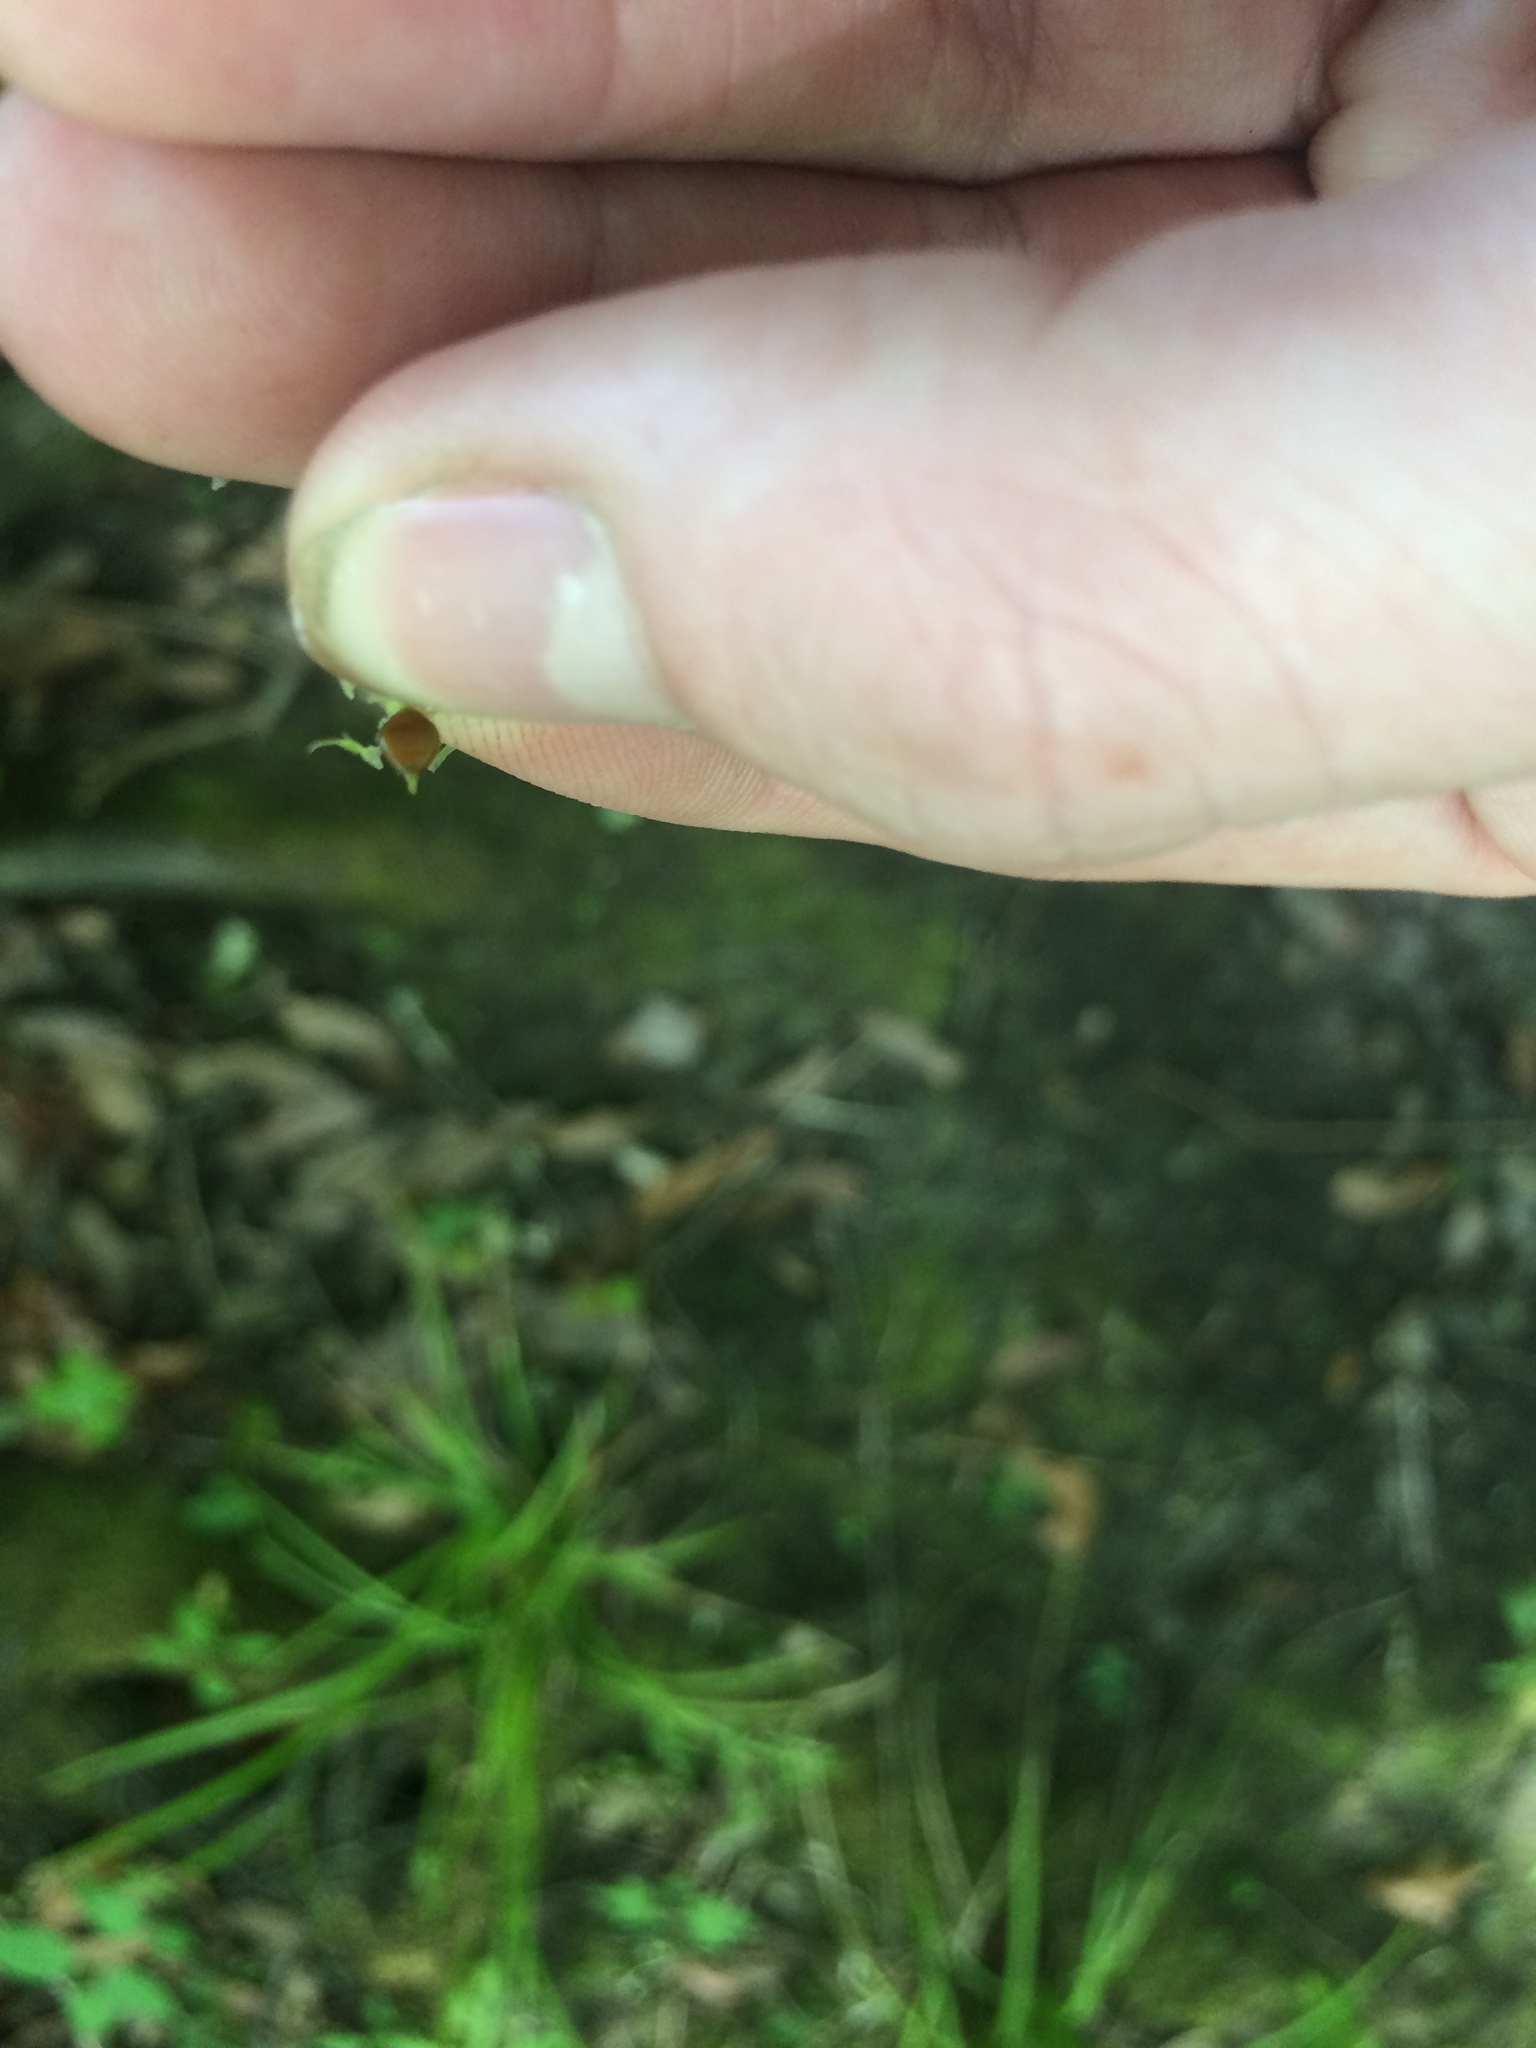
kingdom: Plantae
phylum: Tracheophyta
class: Liliopsida
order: Poales
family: Cyperaceae
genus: Carex
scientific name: Carex intumescens
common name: Greater bladder sedge
